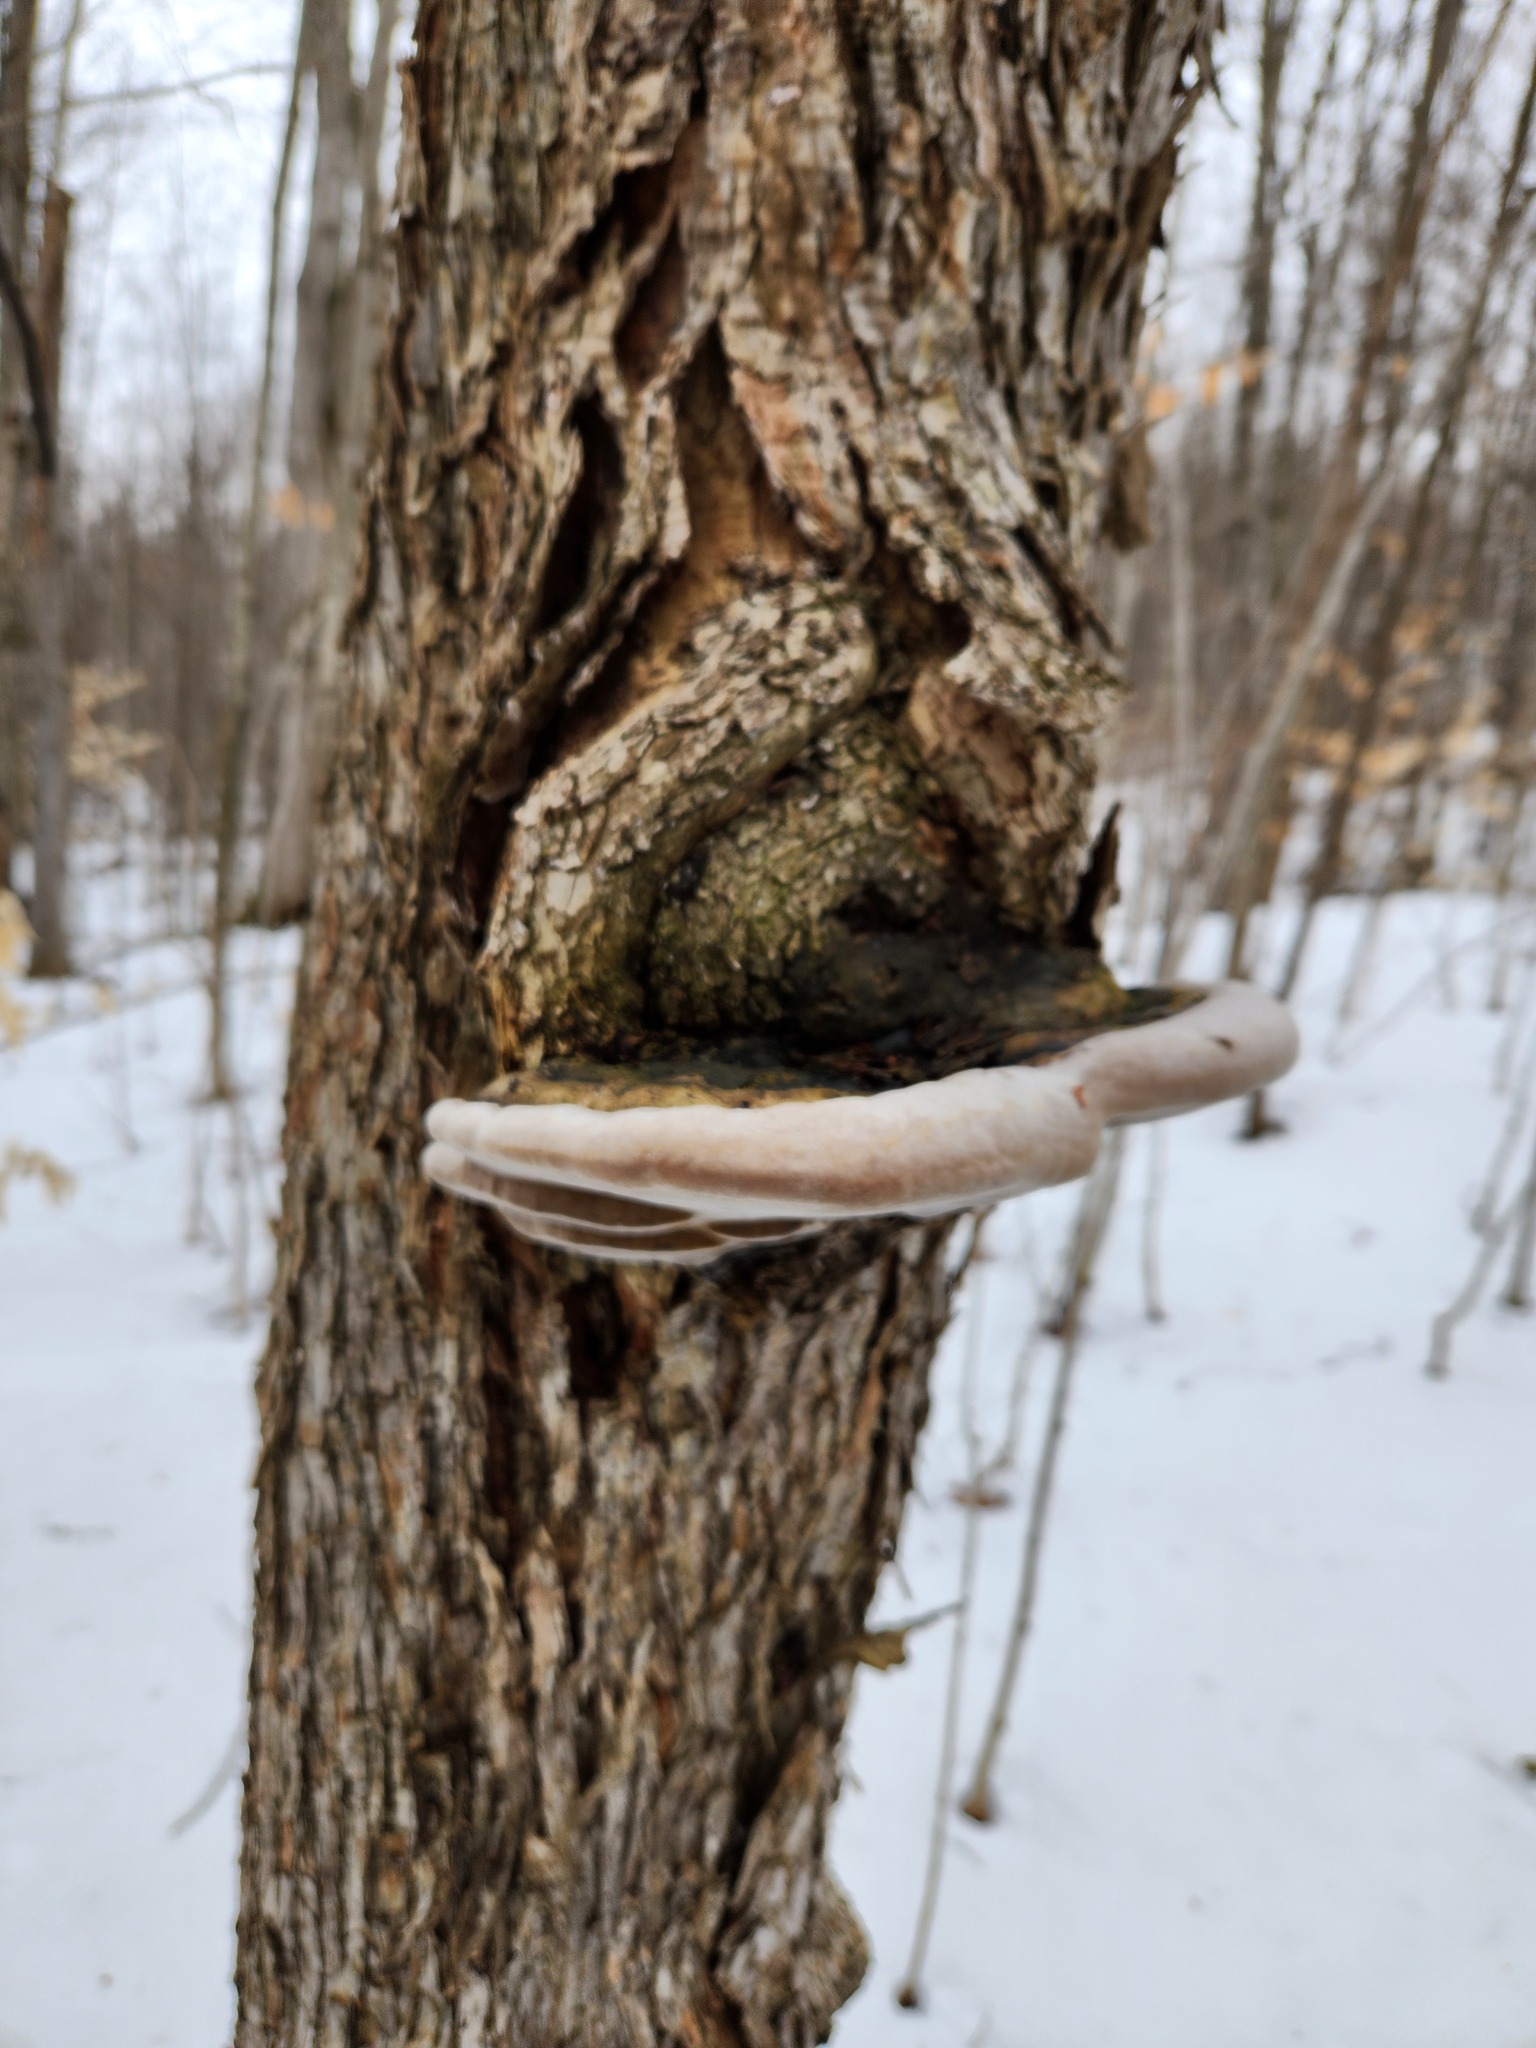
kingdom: Fungi
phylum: Basidiomycota
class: Agaricomycetes
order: Hymenochaetales
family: Hymenochaetaceae
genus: Phellinus
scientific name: Phellinus igniarius
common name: Willow bracket
